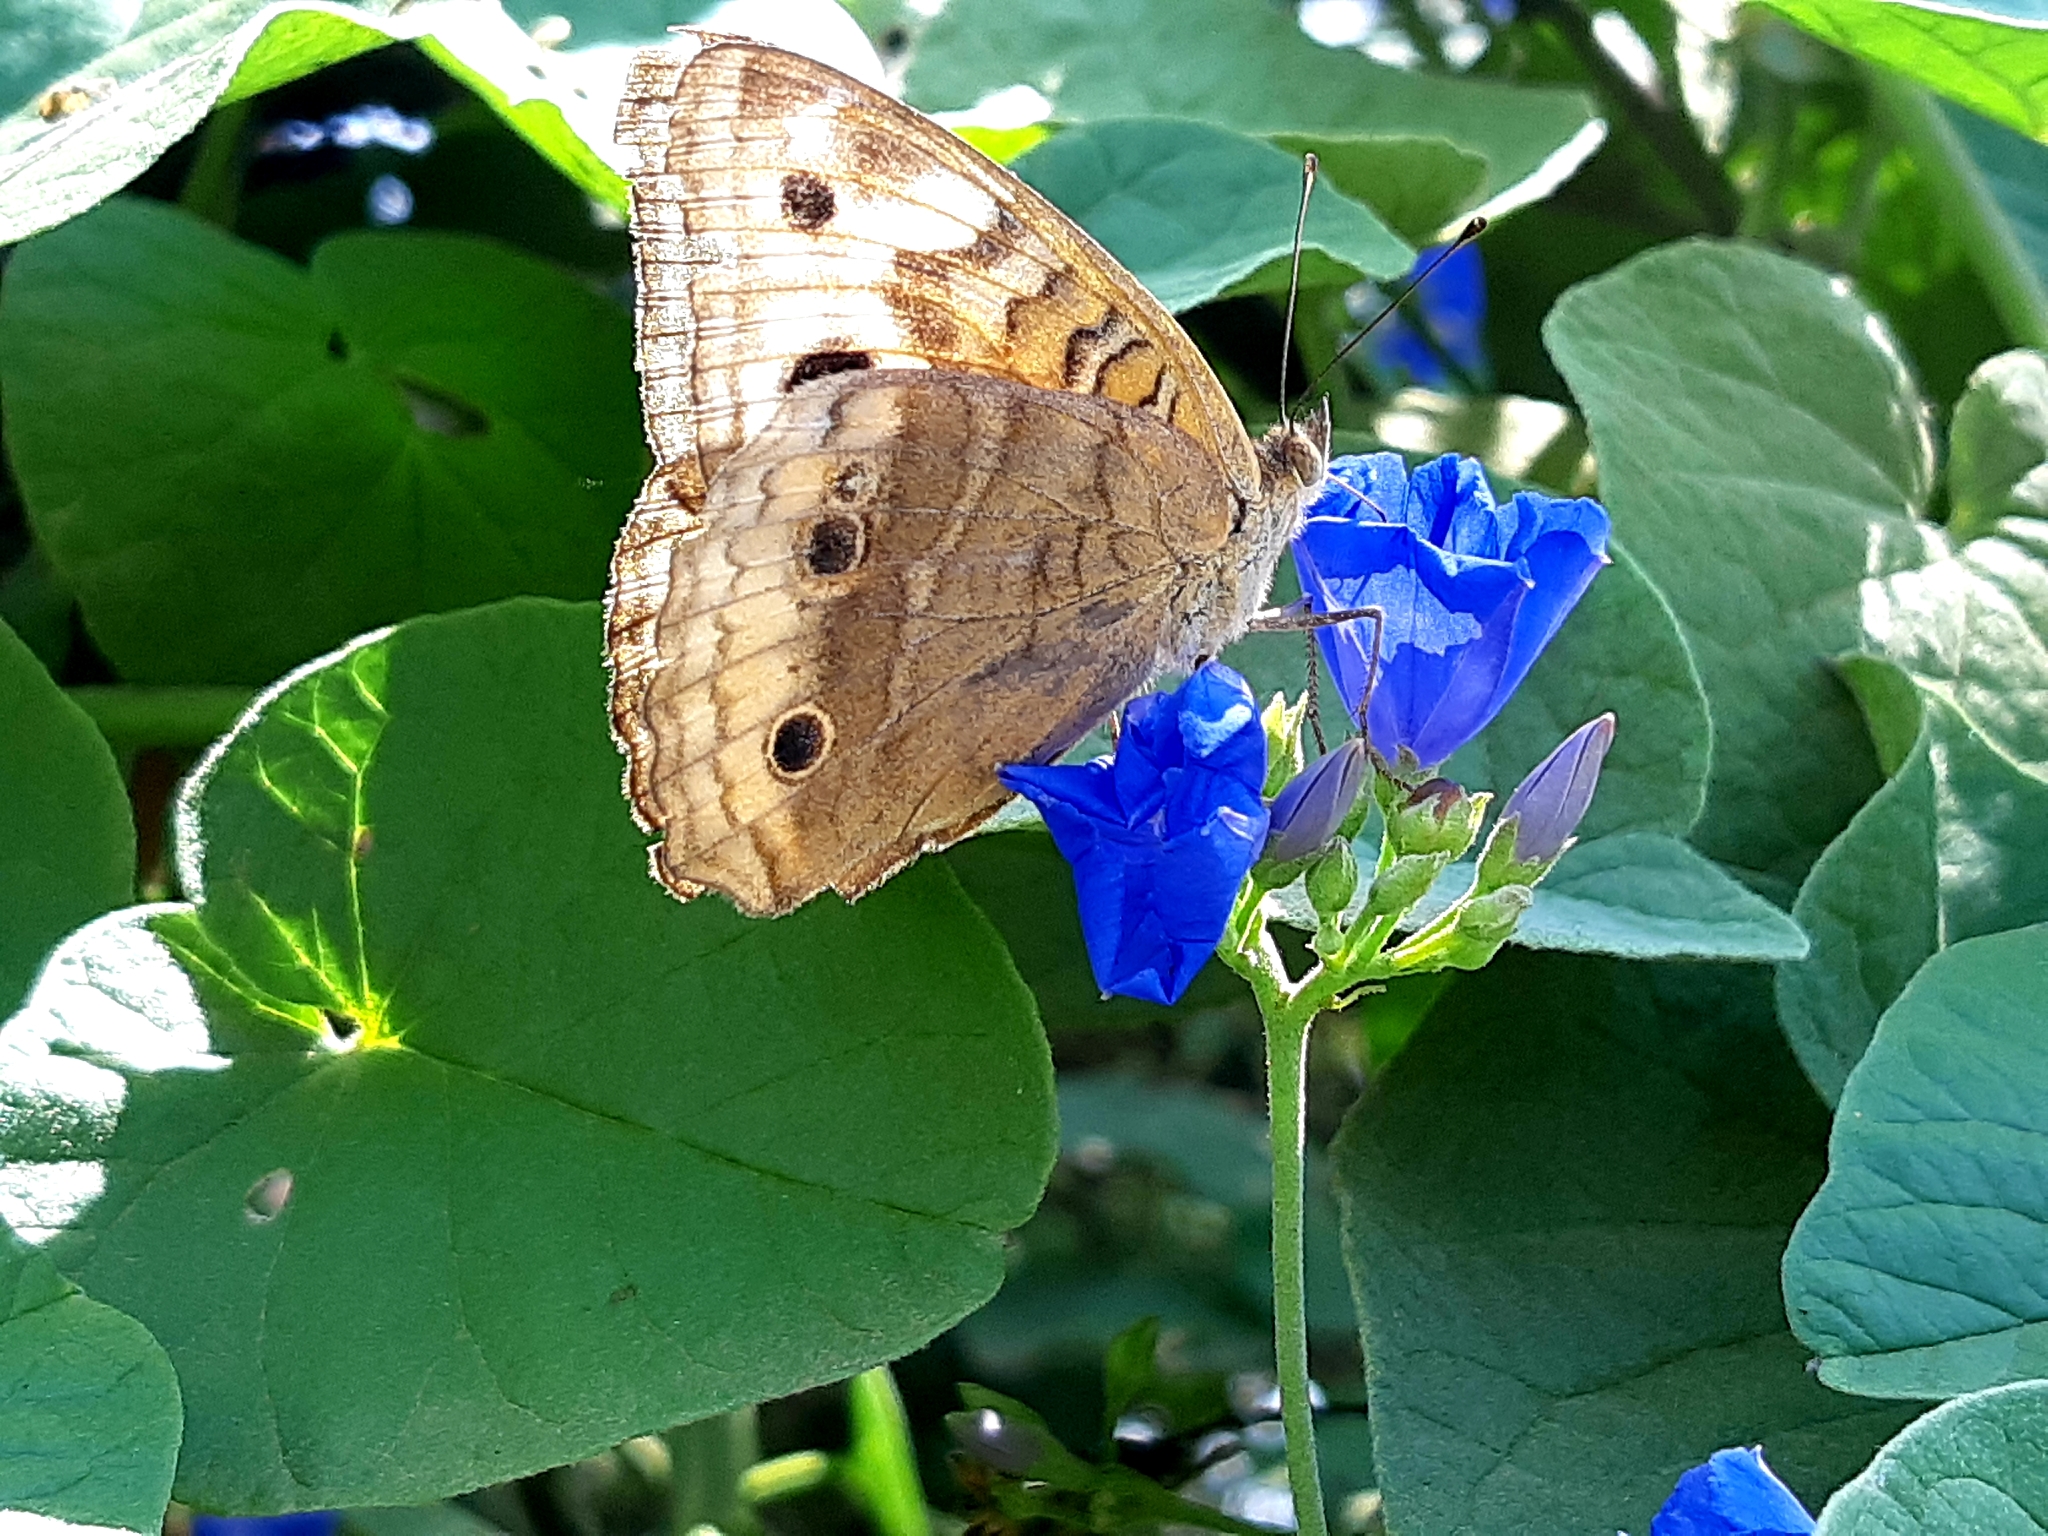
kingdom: Animalia
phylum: Arthropoda
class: Insecta
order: Lepidoptera
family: Nymphalidae
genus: Junonia
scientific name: Junonia lavinia
